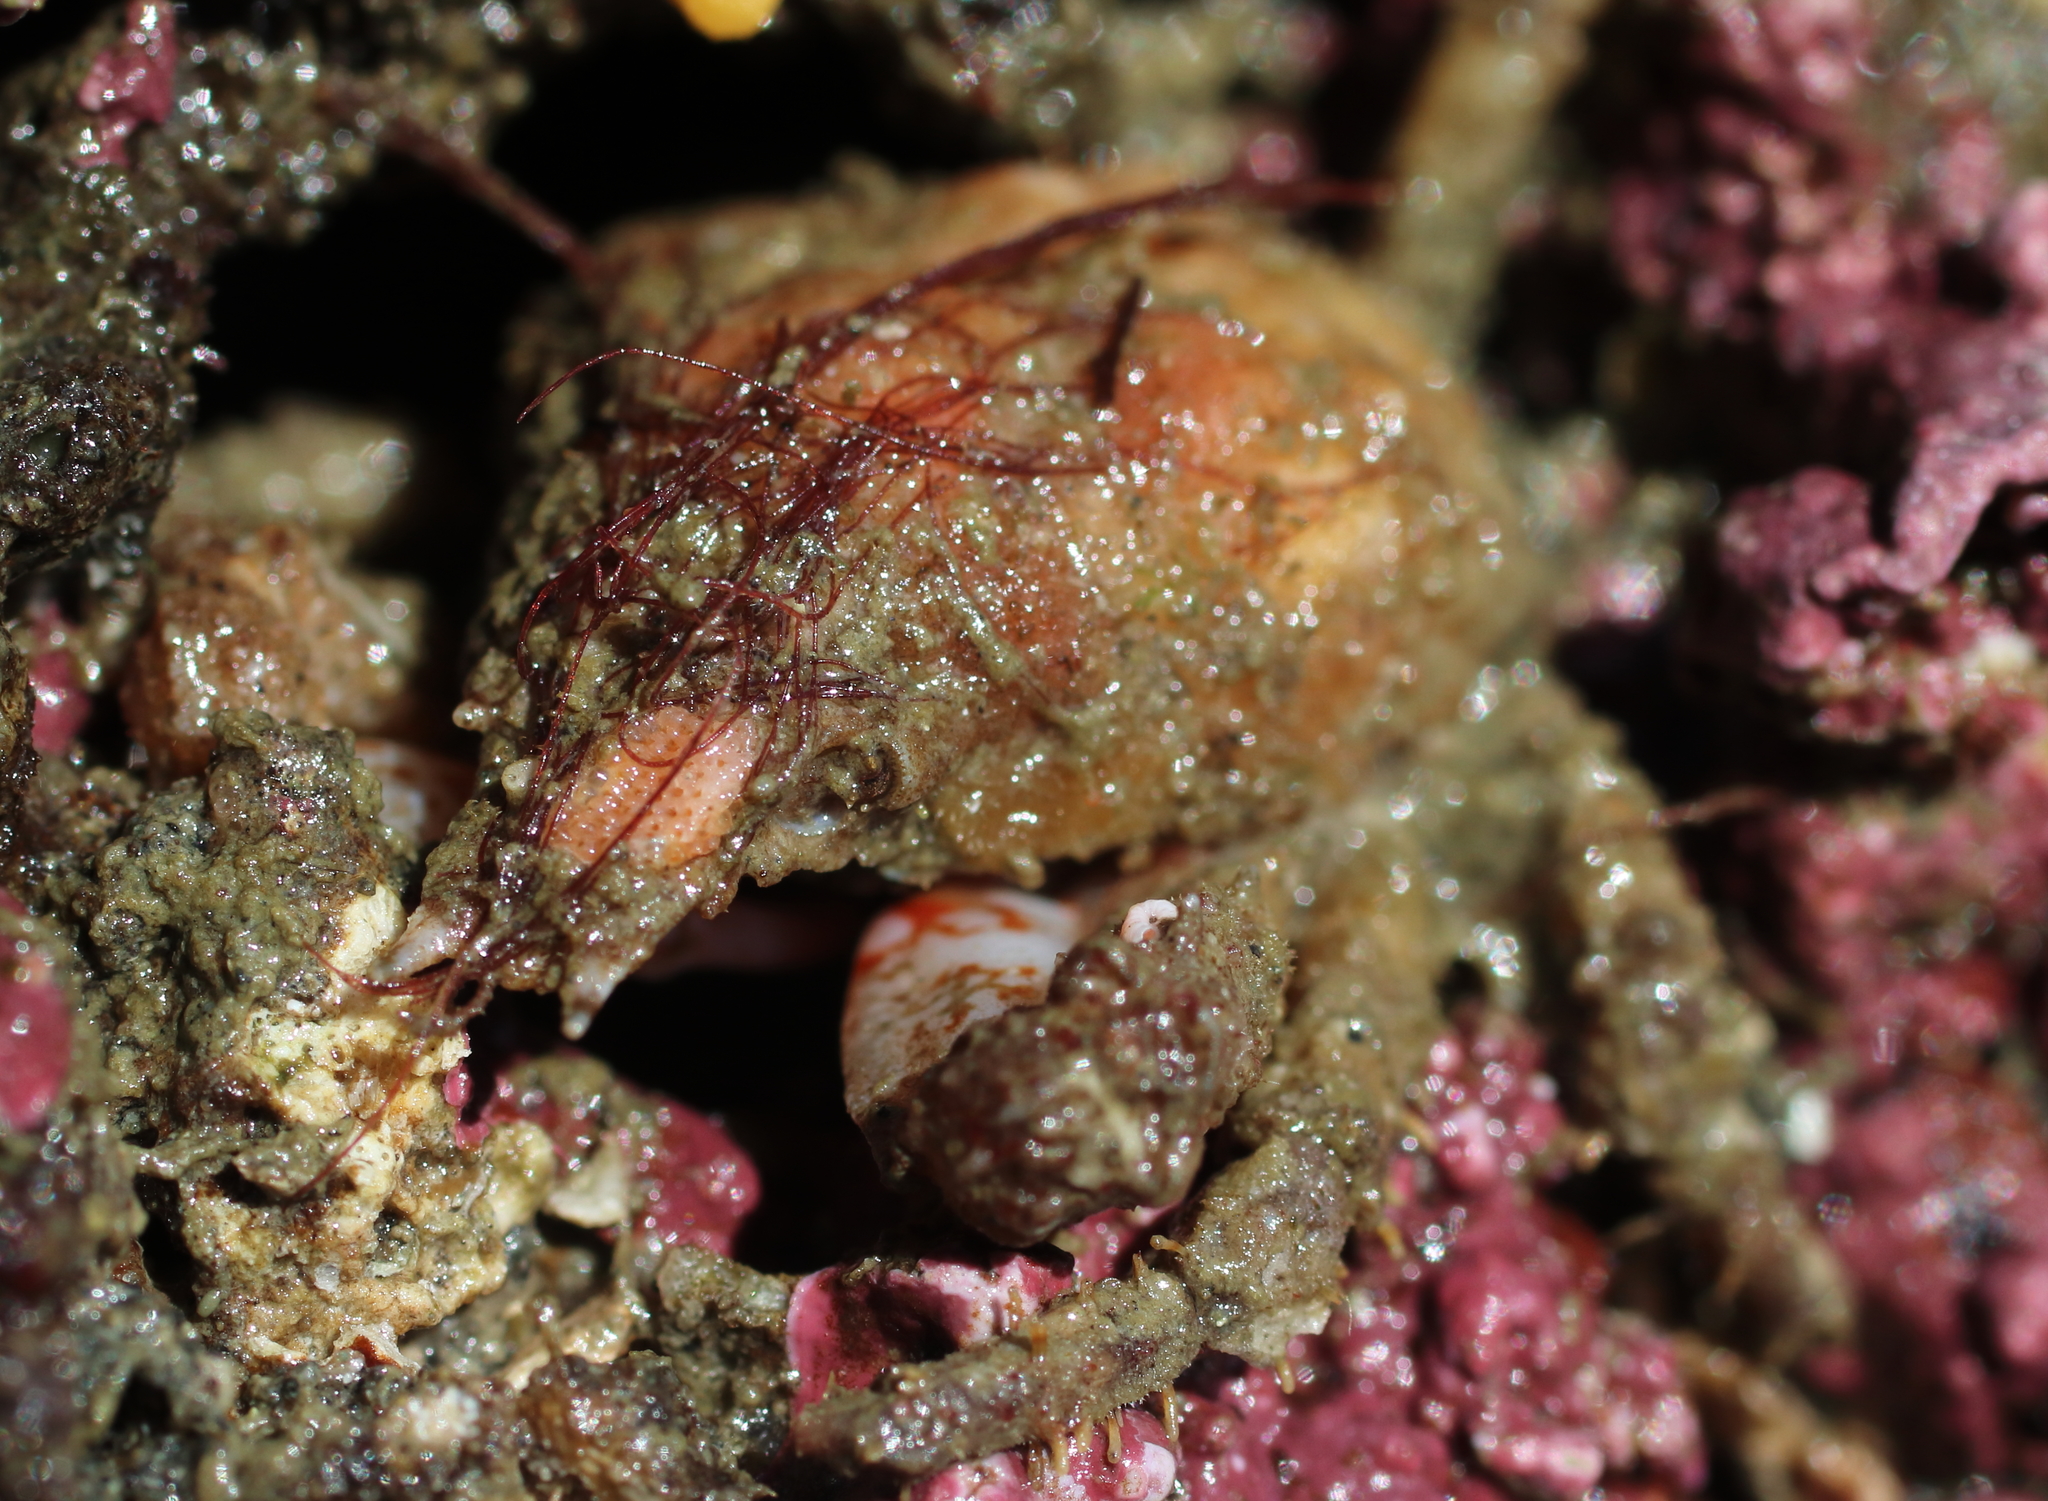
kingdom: Animalia
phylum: Arthropoda
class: Malacostraca
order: Decapoda
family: Epialtidae
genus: Scyra
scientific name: Scyra acutifrons
